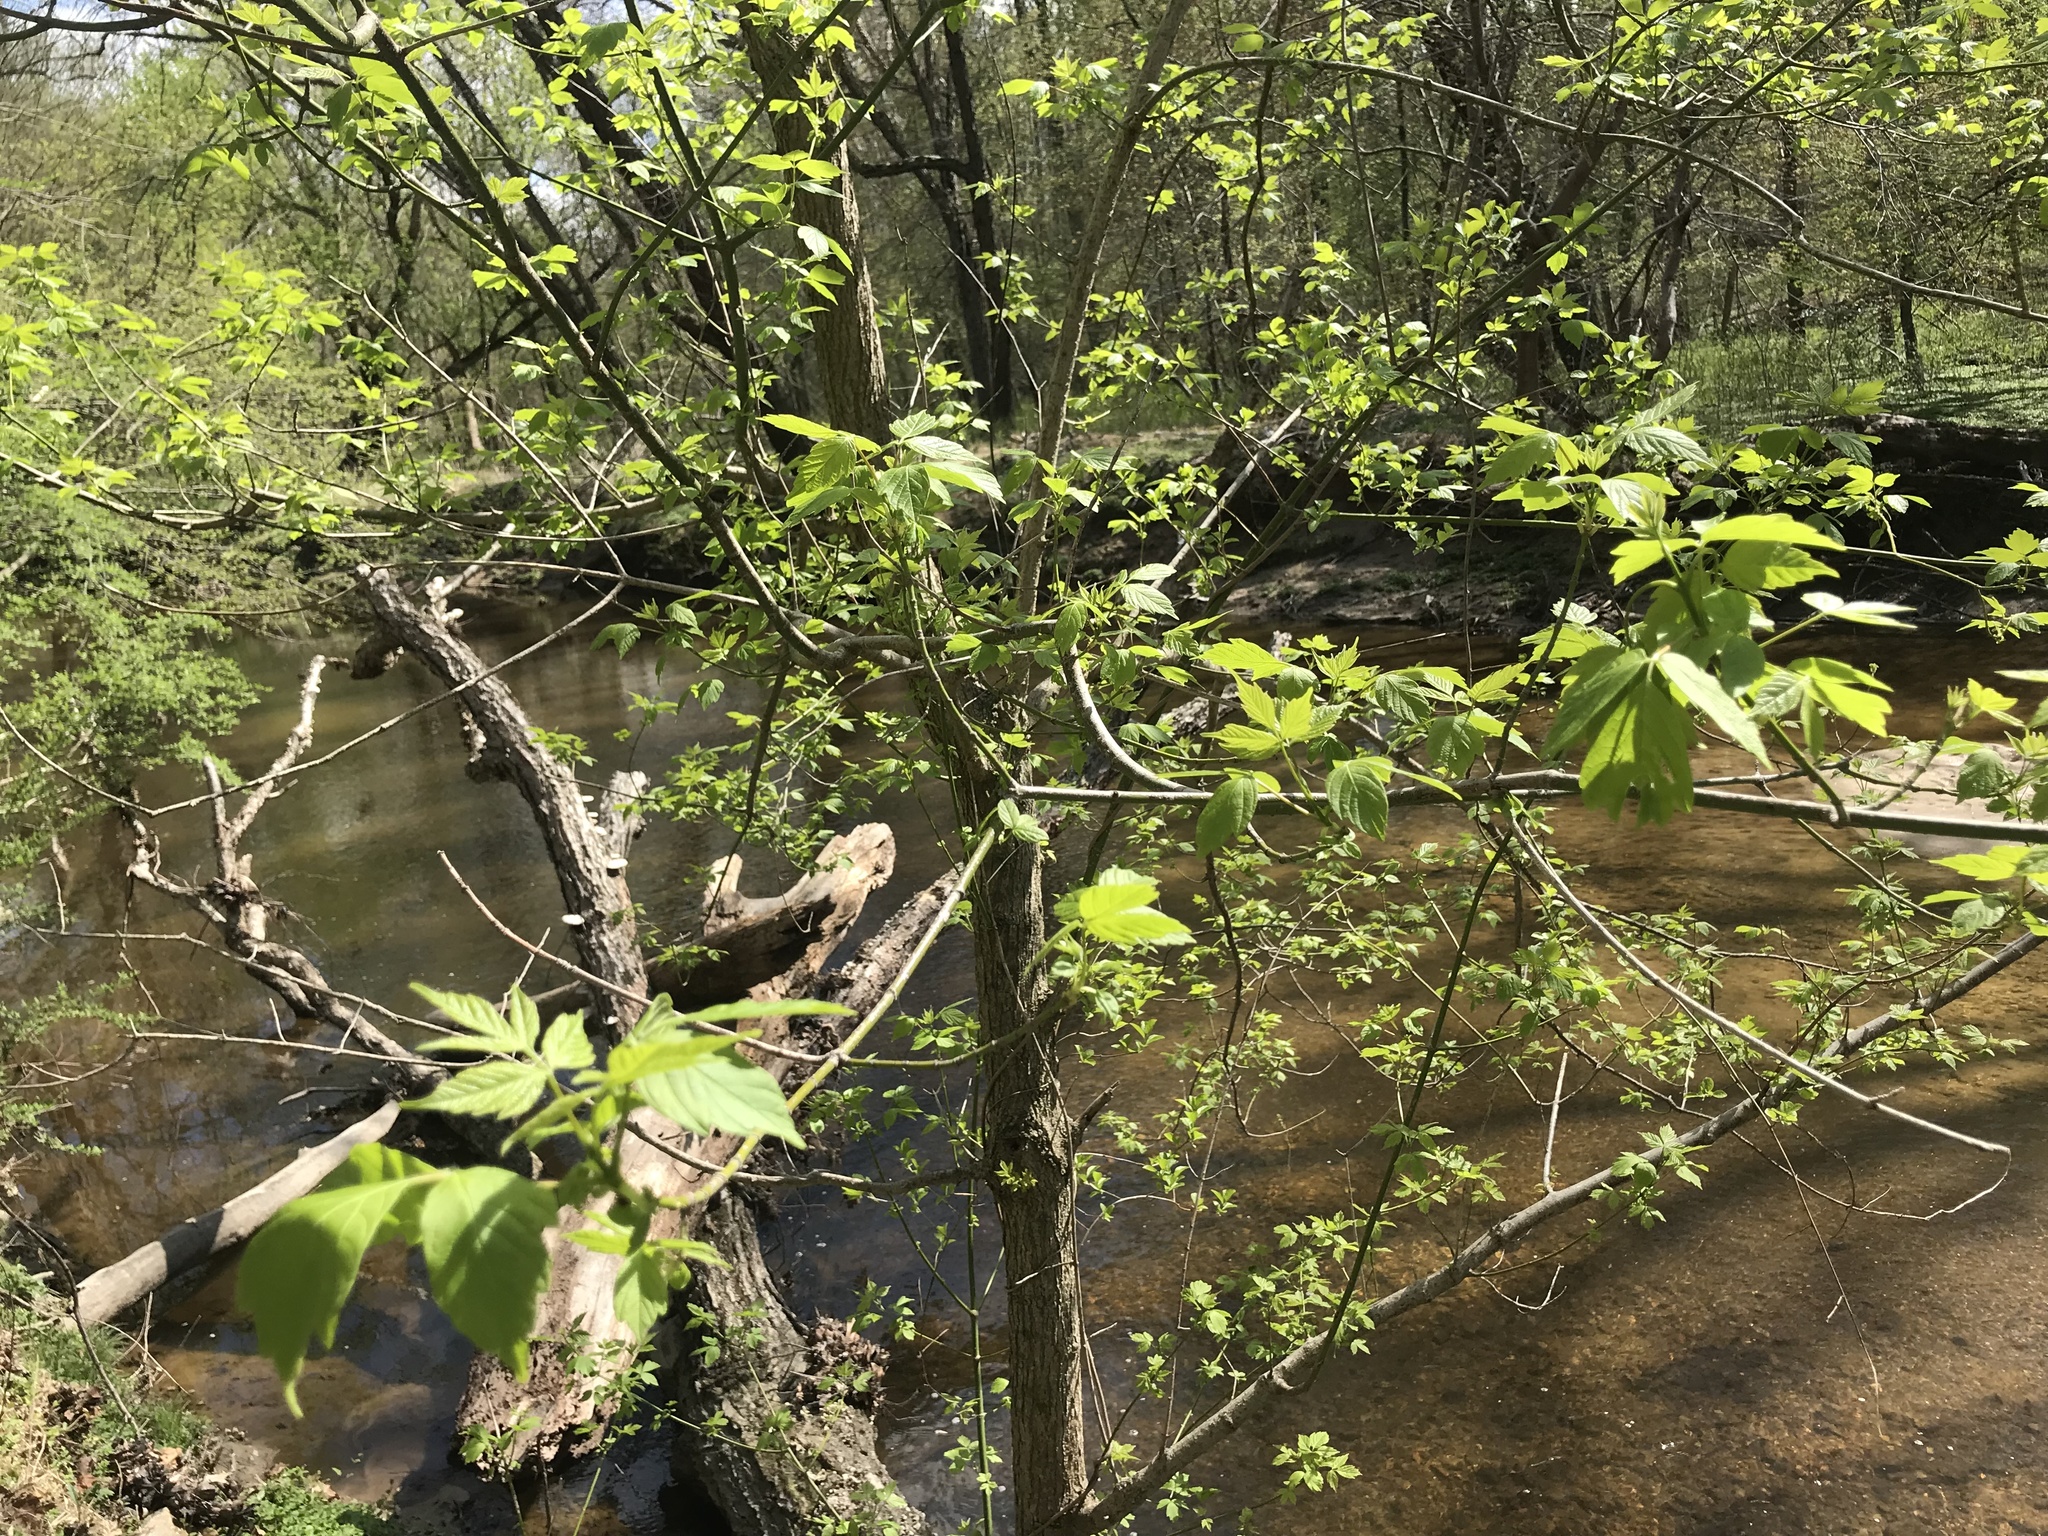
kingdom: Plantae
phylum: Tracheophyta
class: Magnoliopsida
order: Sapindales
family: Sapindaceae
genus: Acer
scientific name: Acer negundo
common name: Ashleaf maple
